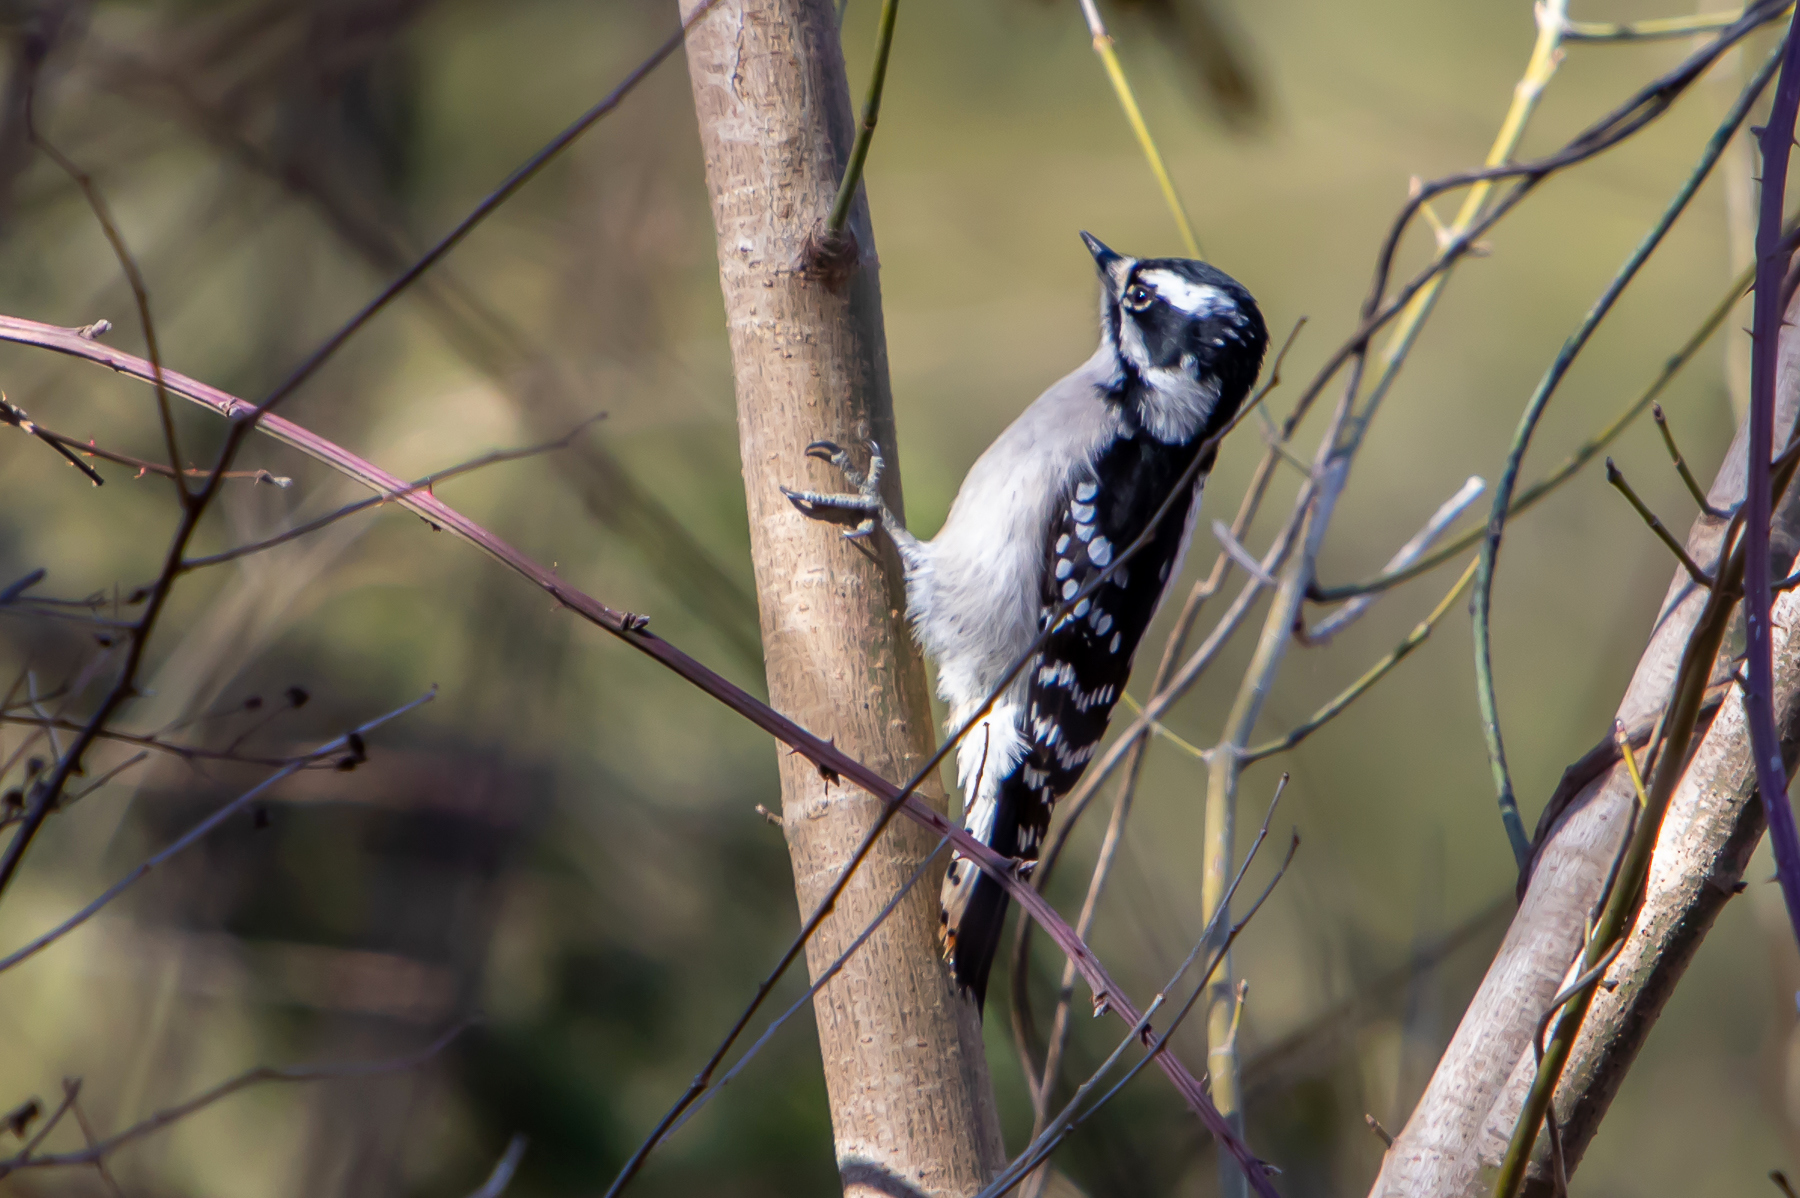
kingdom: Animalia
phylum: Chordata
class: Aves
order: Piciformes
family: Picidae
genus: Dryobates
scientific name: Dryobates pubescens
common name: Downy woodpecker
